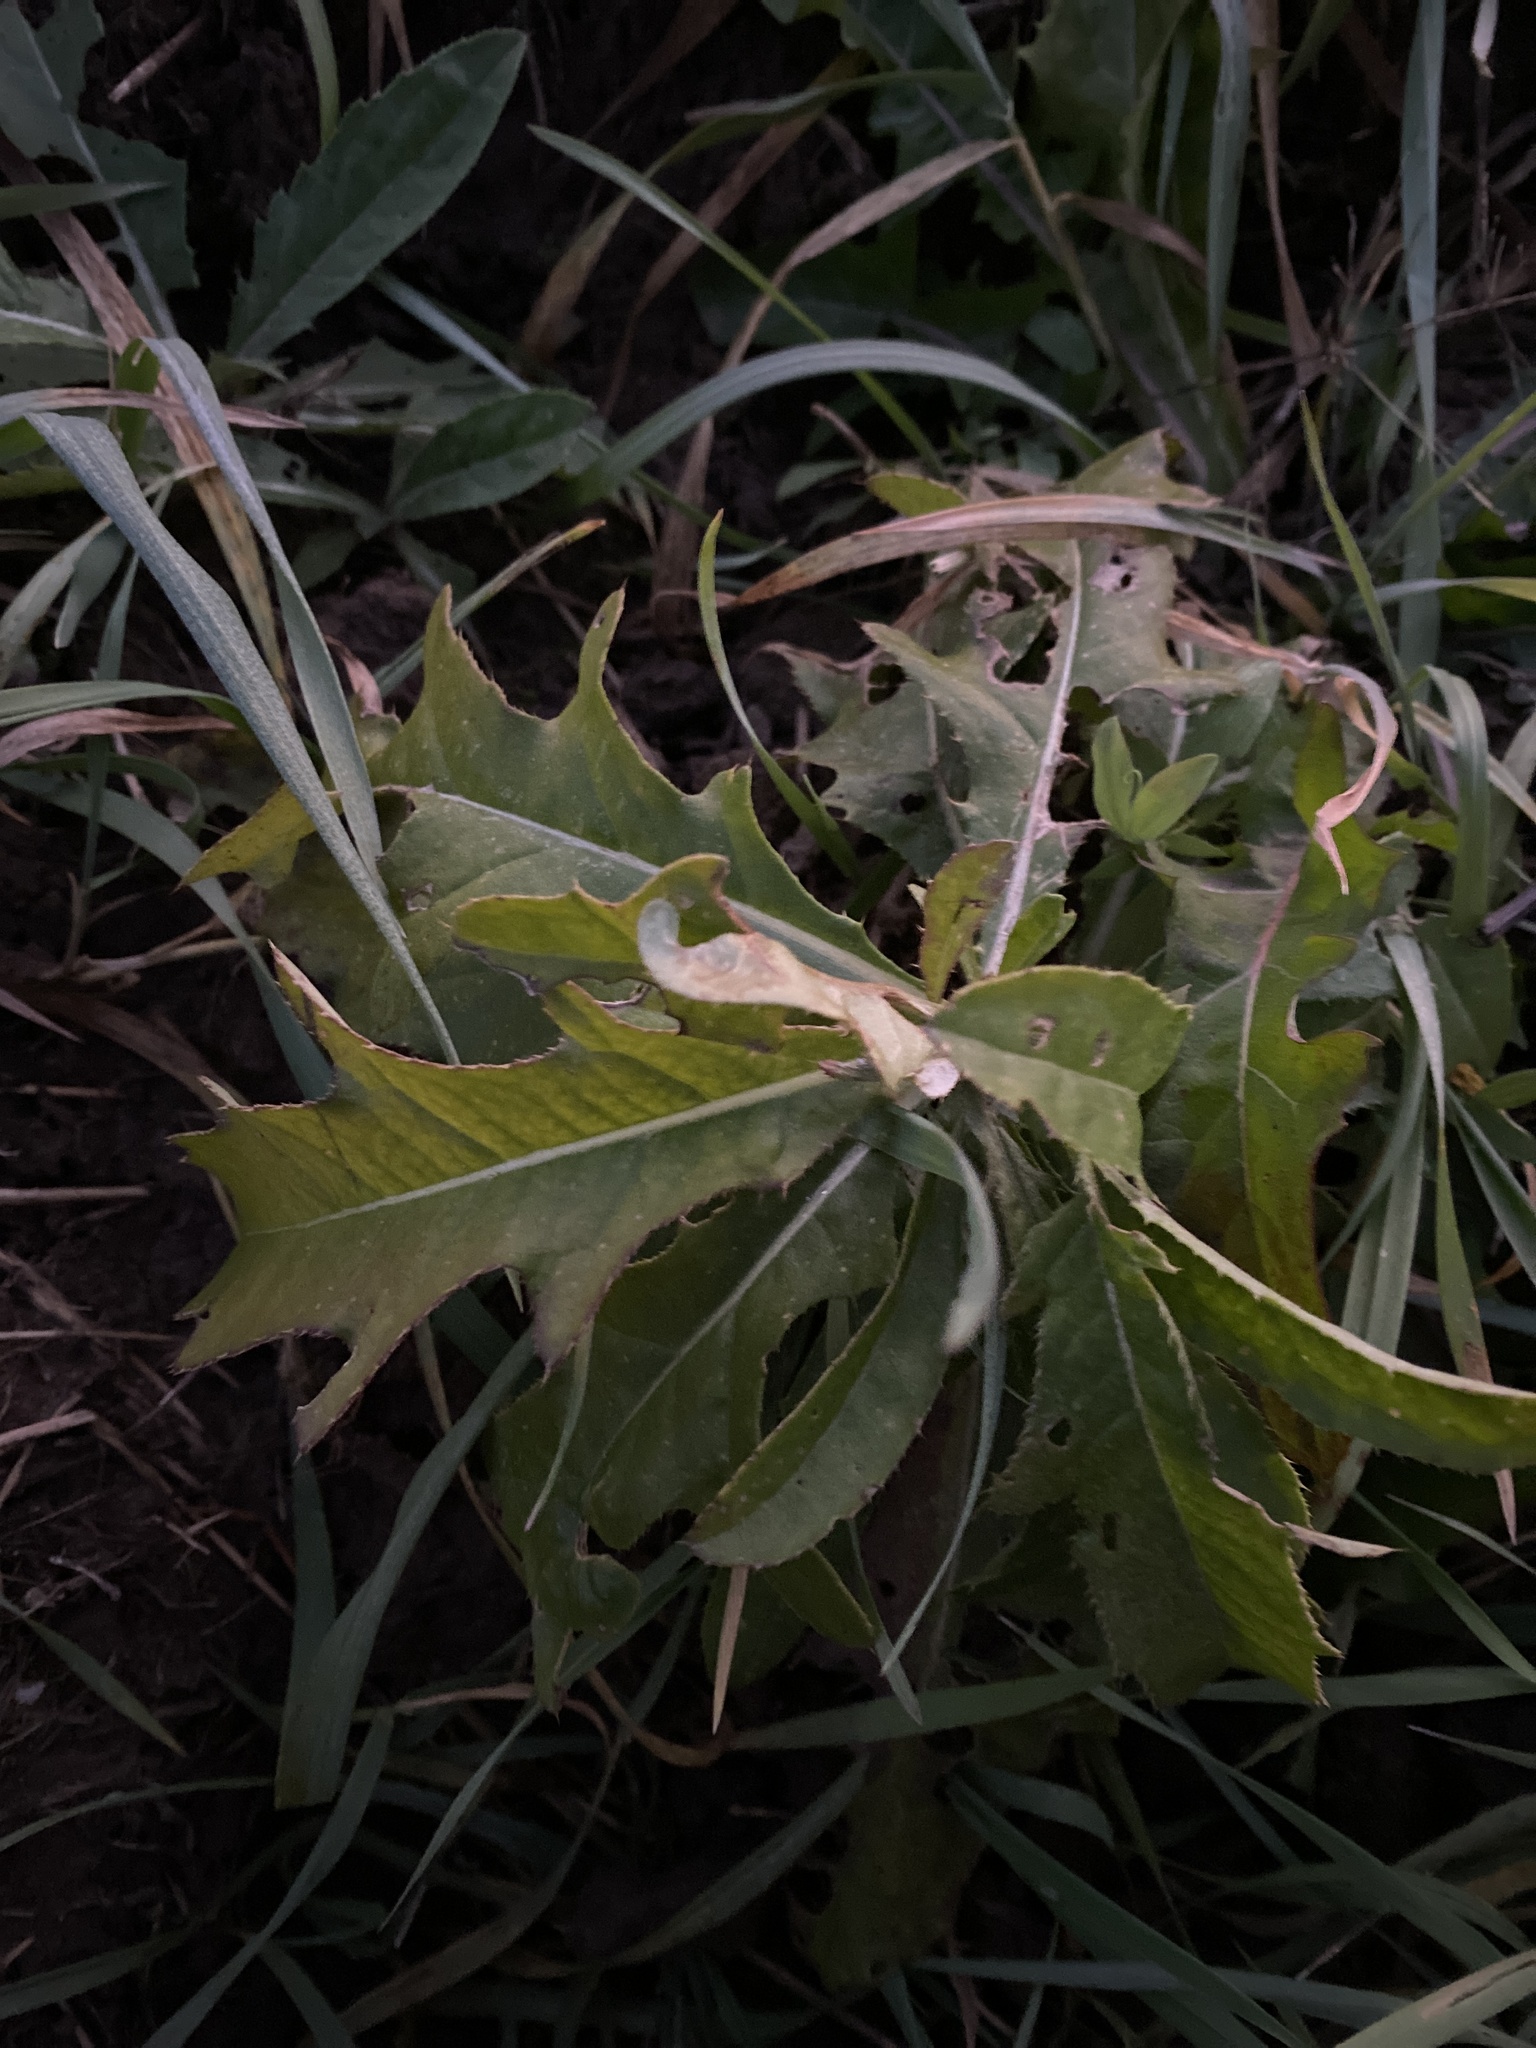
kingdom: Plantae
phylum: Tracheophyta
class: Magnoliopsida
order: Asterales
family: Asteraceae
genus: Cirsium
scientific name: Cirsium arvense
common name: Creeping thistle
